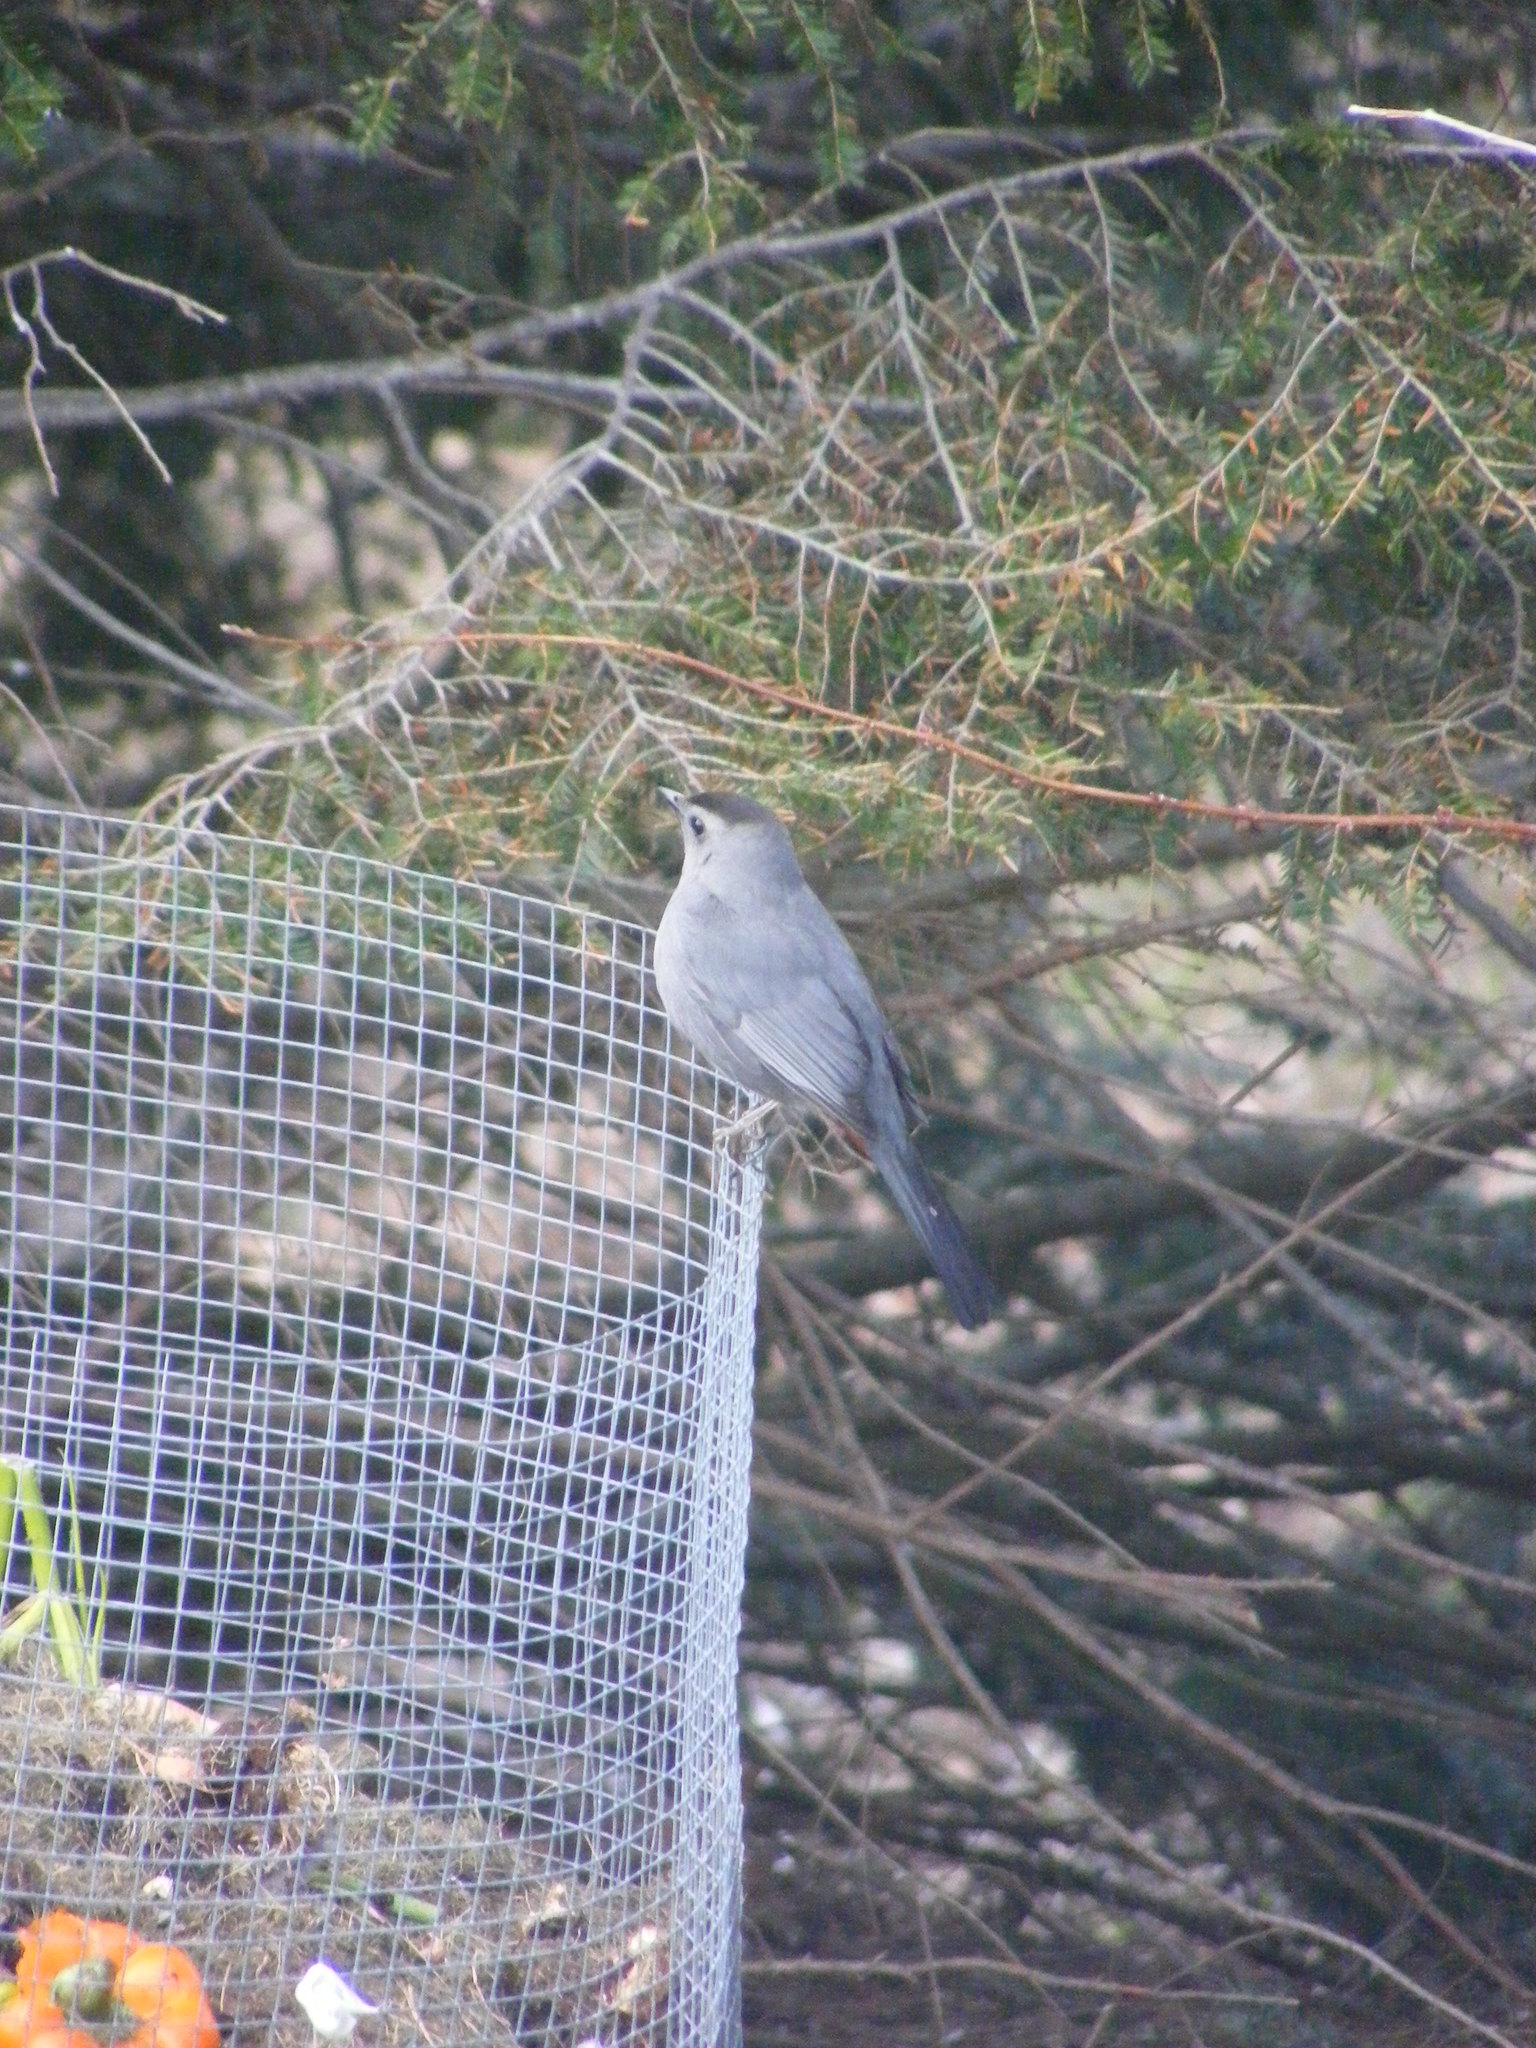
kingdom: Animalia
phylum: Chordata
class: Aves
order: Passeriformes
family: Mimidae
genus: Dumetella
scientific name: Dumetella carolinensis
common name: Gray catbird
